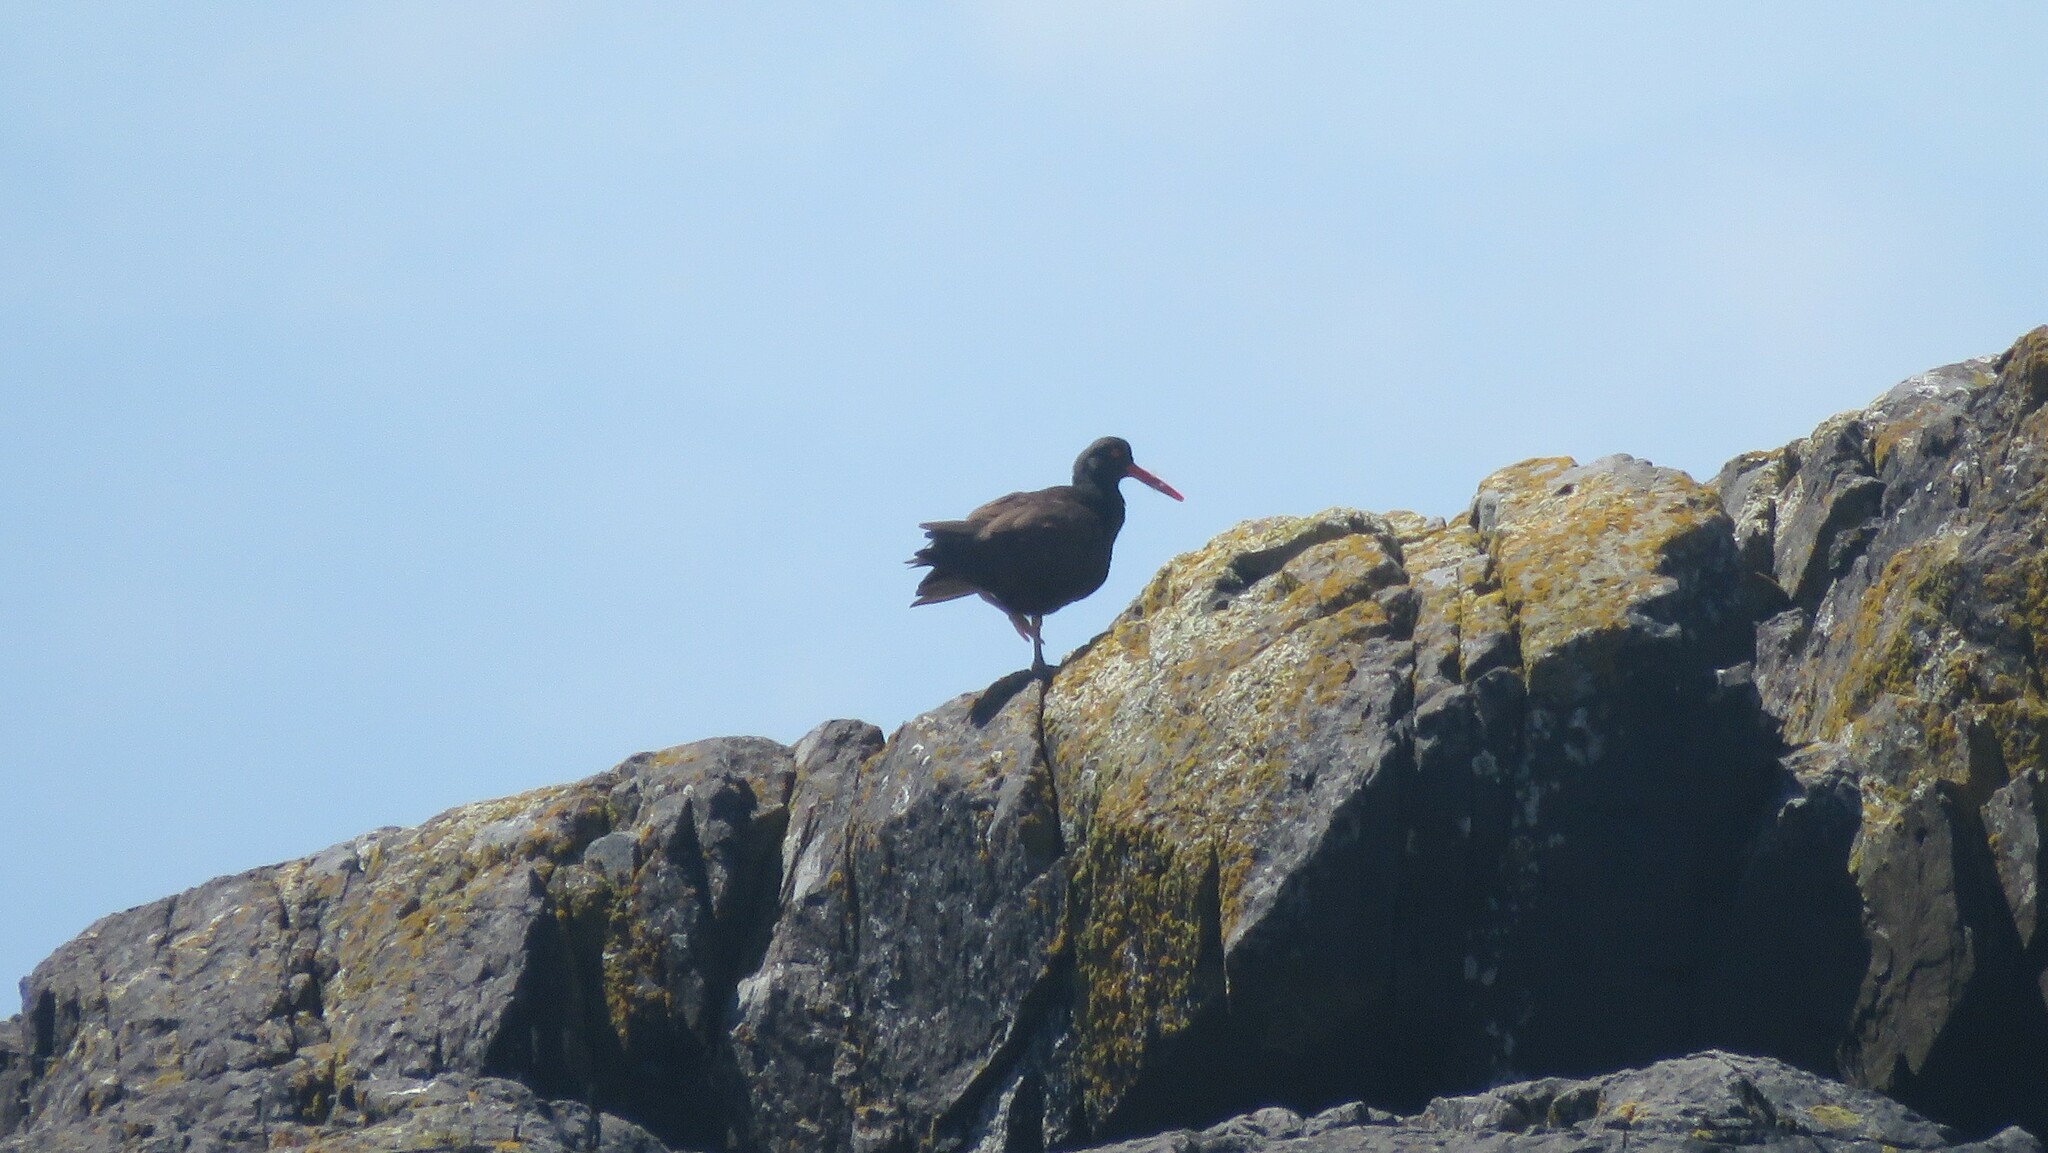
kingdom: Animalia
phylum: Chordata
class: Aves
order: Charadriiformes
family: Haematopodidae
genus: Haematopus
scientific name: Haematopus bachmani
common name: Black oystercatcher
